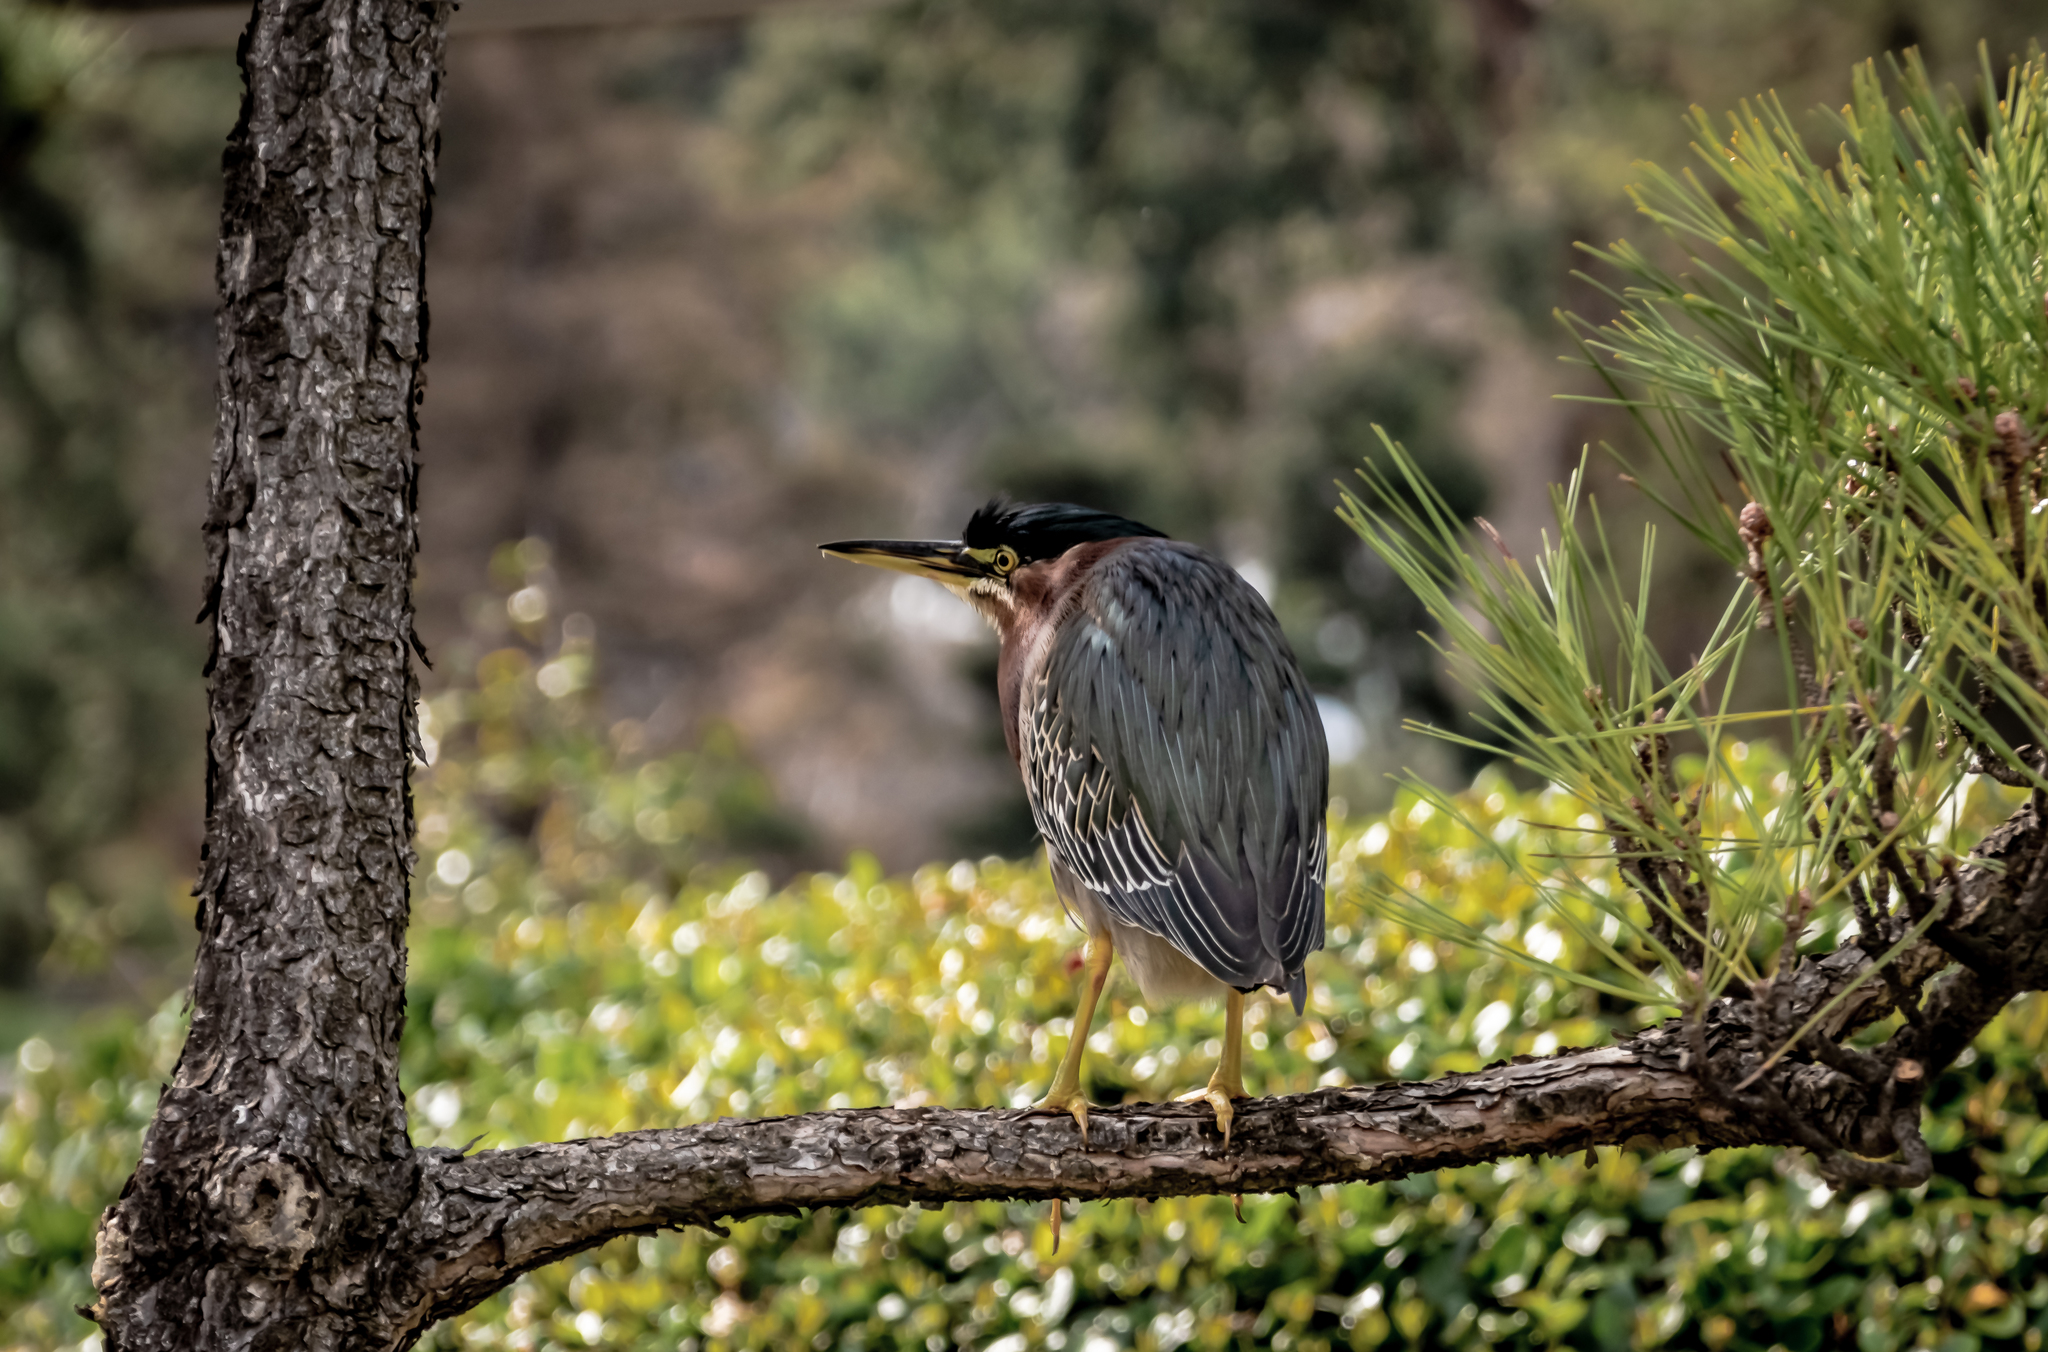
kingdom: Animalia
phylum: Chordata
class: Aves
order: Pelecaniformes
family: Ardeidae
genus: Butorides
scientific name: Butorides virescens
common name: Green heron
